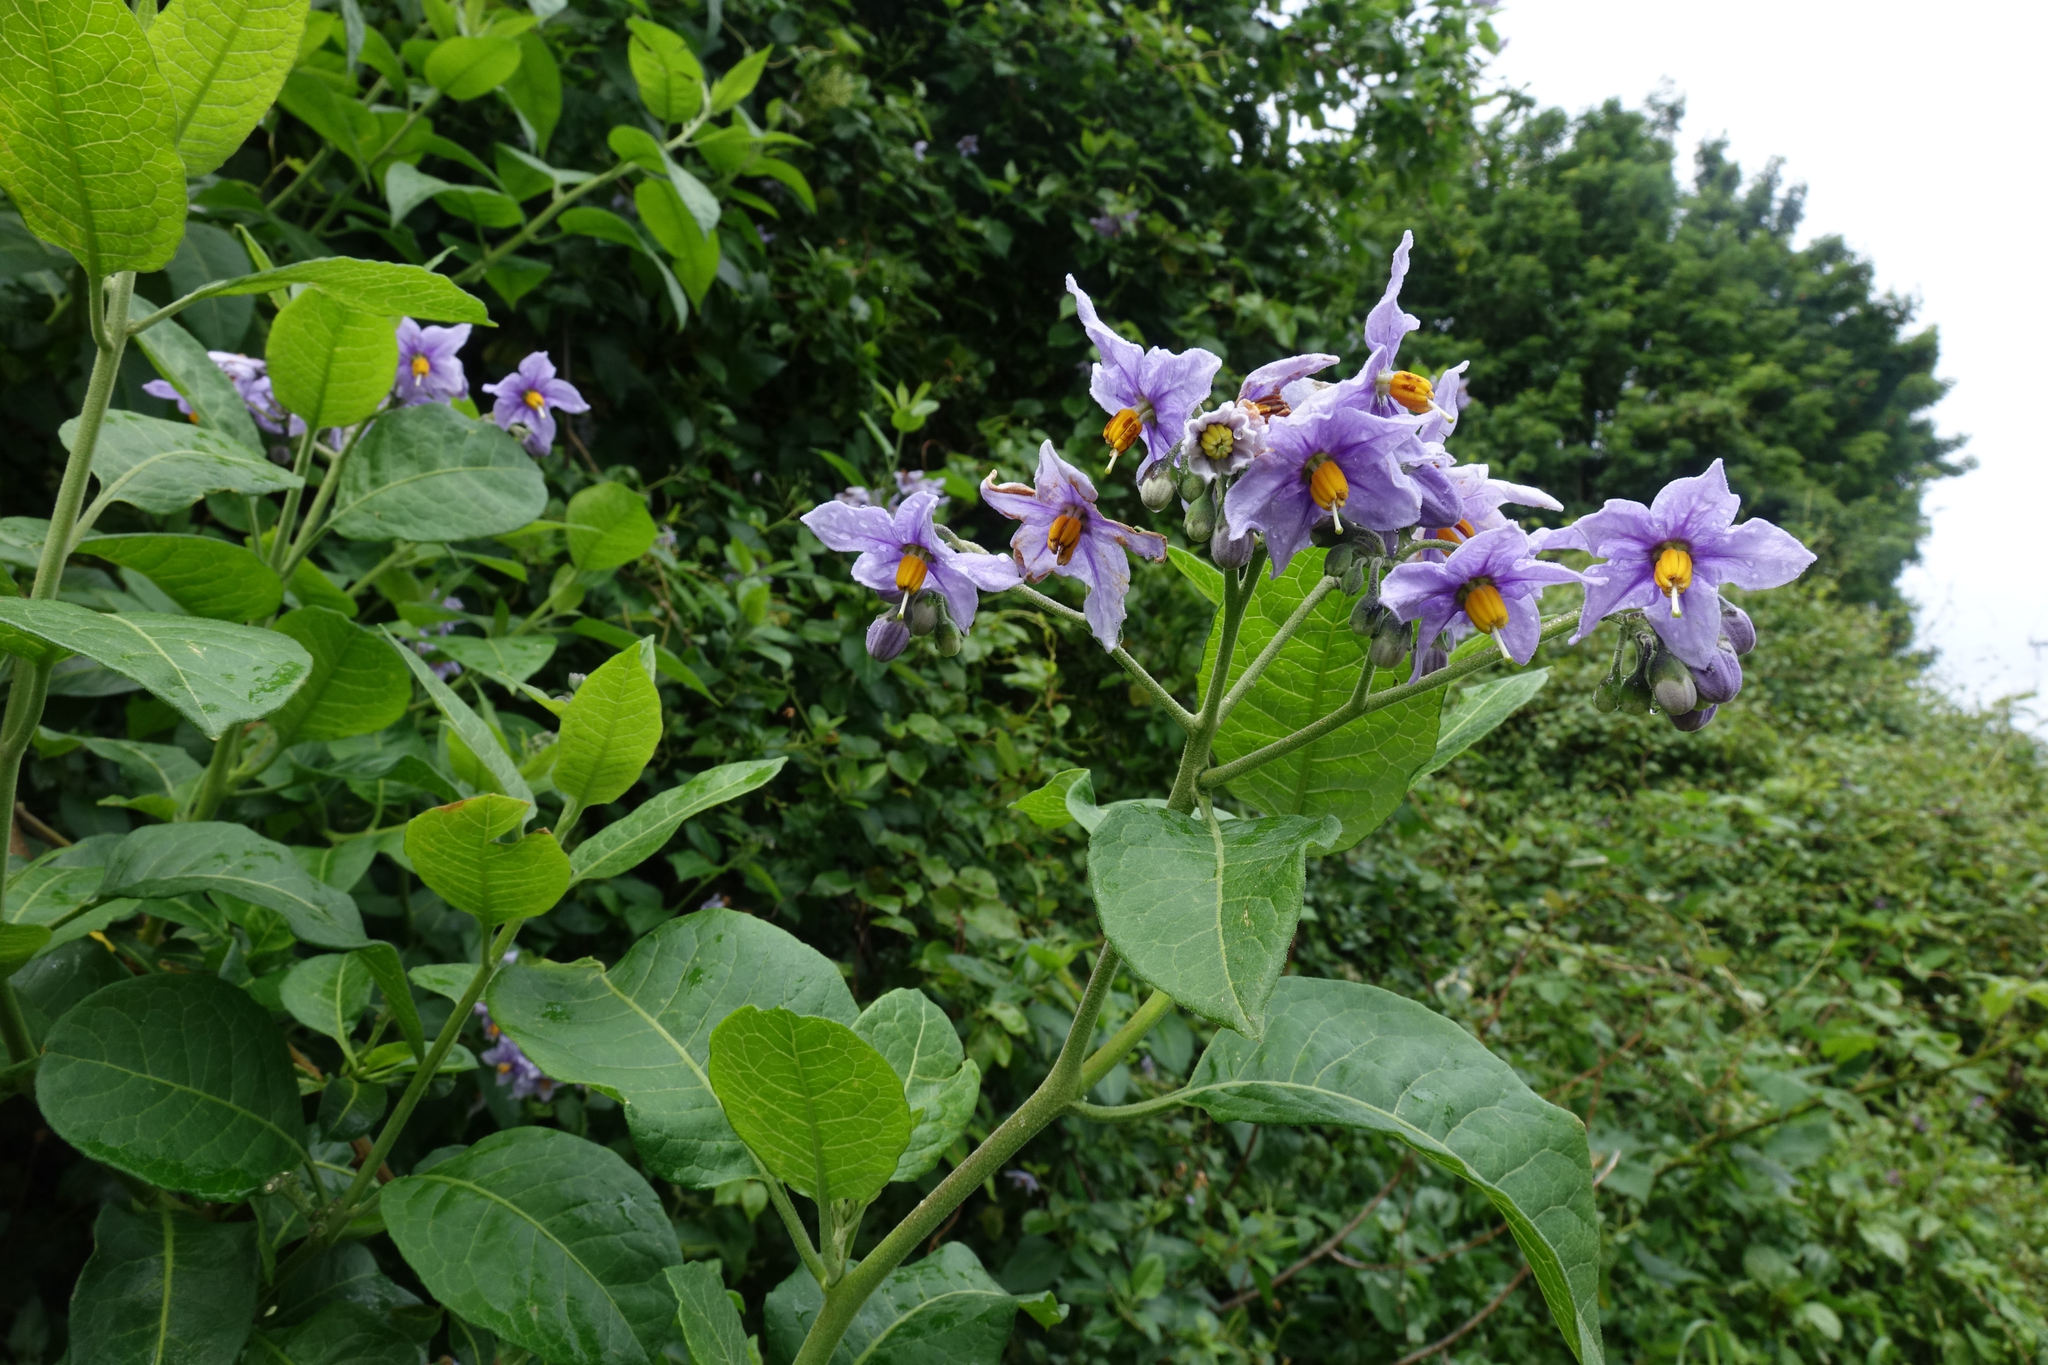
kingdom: Plantae
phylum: Tracheophyta
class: Magnoliopsida
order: Solanales
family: Solanaceae
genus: Solanum
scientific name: Solanum crispum
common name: Chilean nightshade
